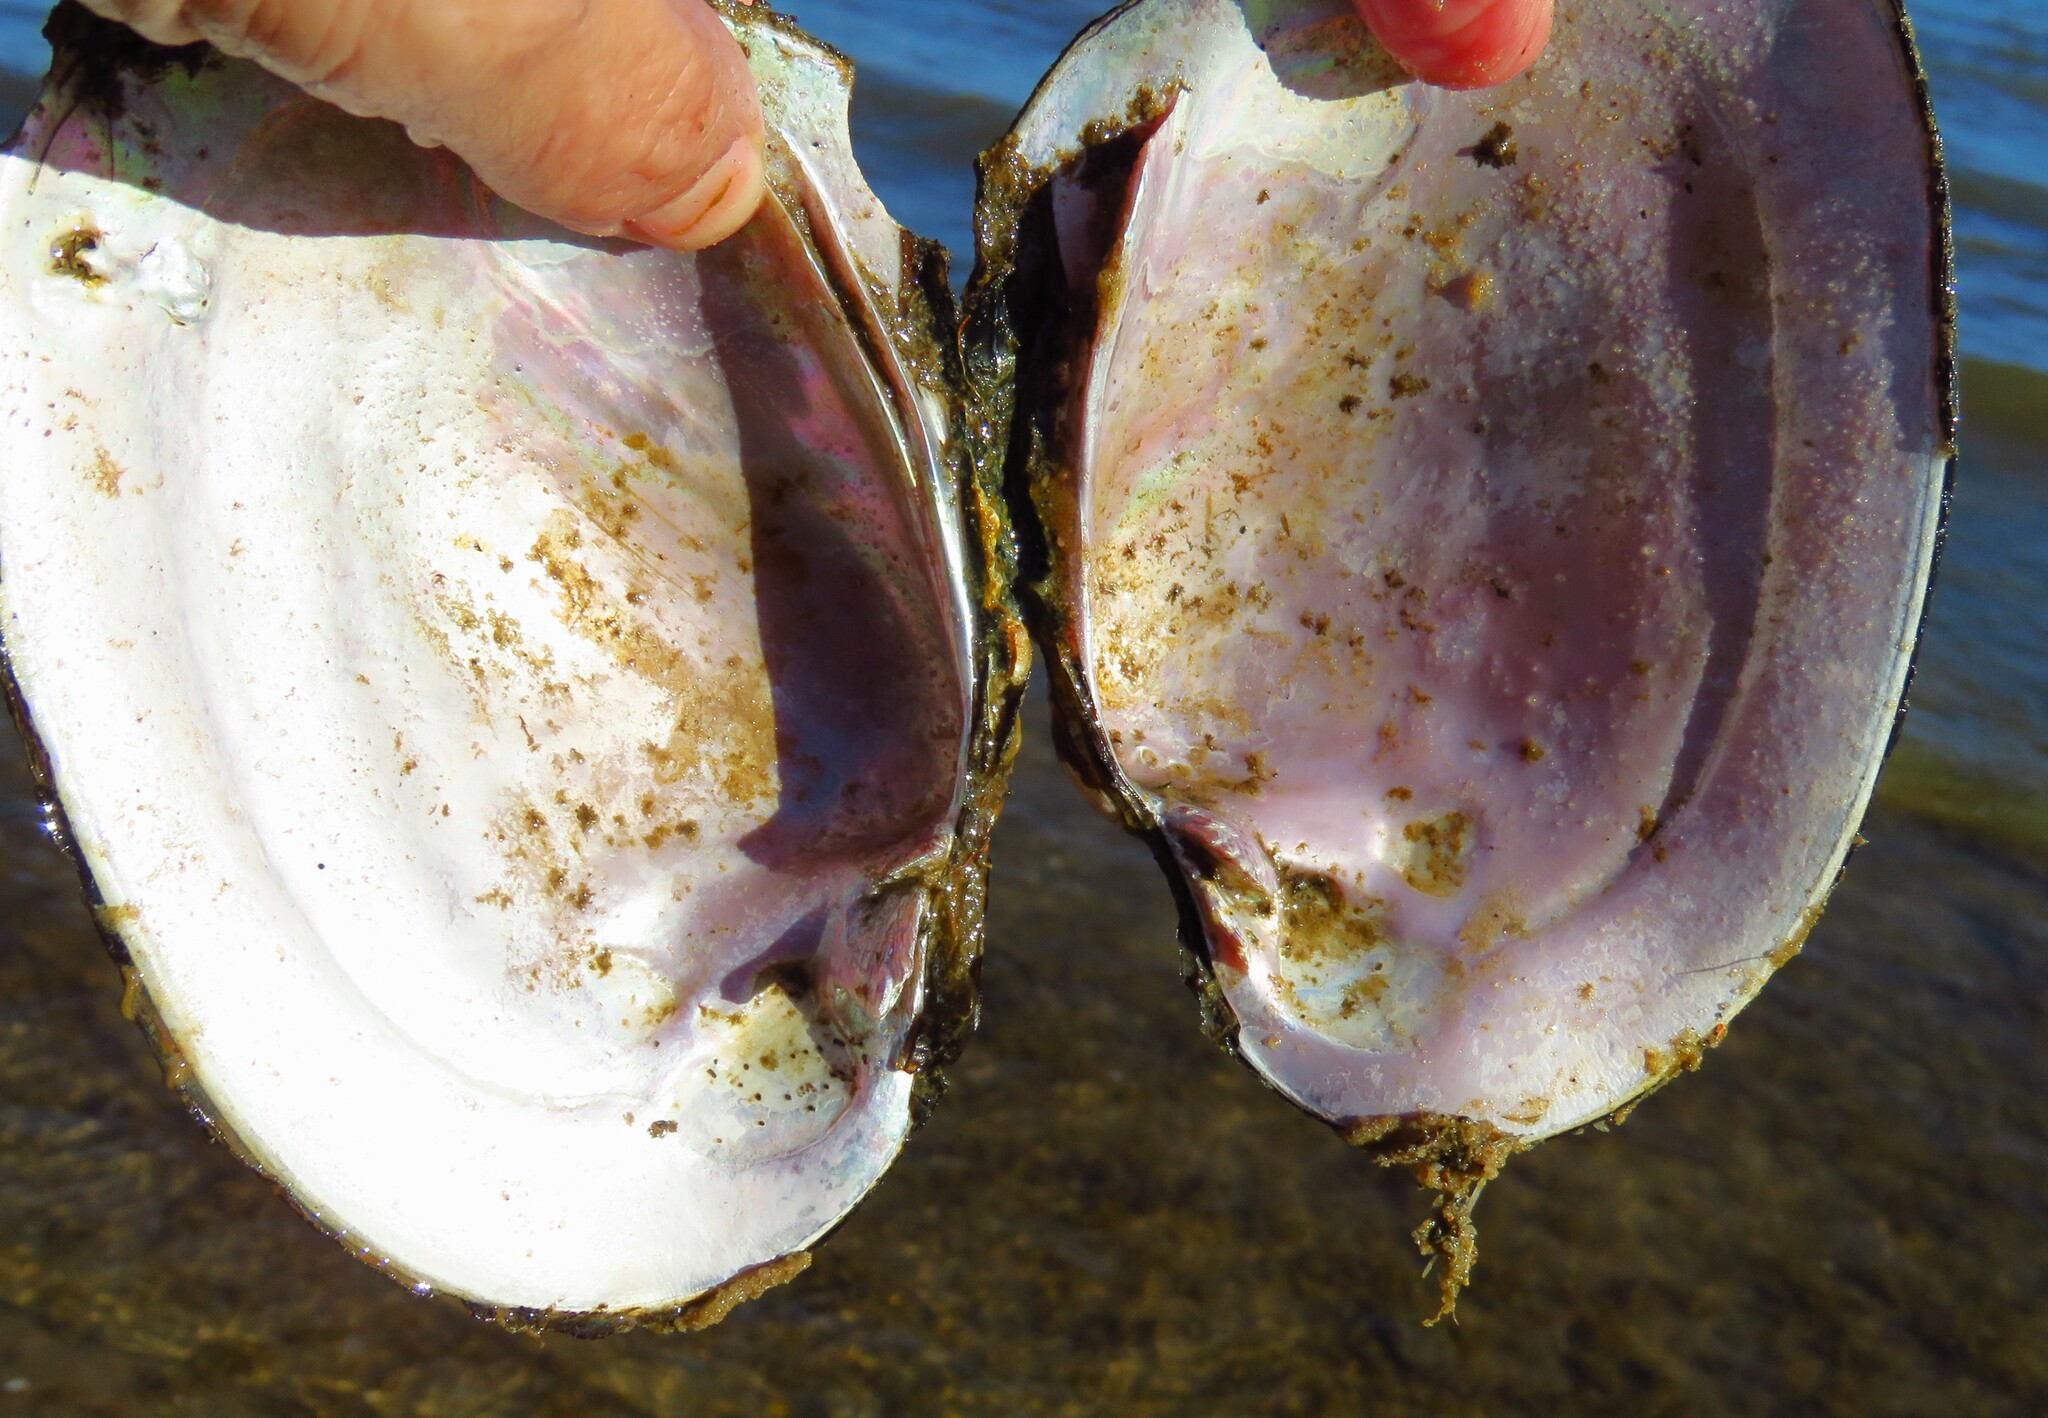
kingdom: Animalia
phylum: Mollusca
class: Bivalvia
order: Unionida
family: Unionidae
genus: Cyrtonaias
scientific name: Cyrtonaias tampicoensis
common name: Tampico pearlymussel
